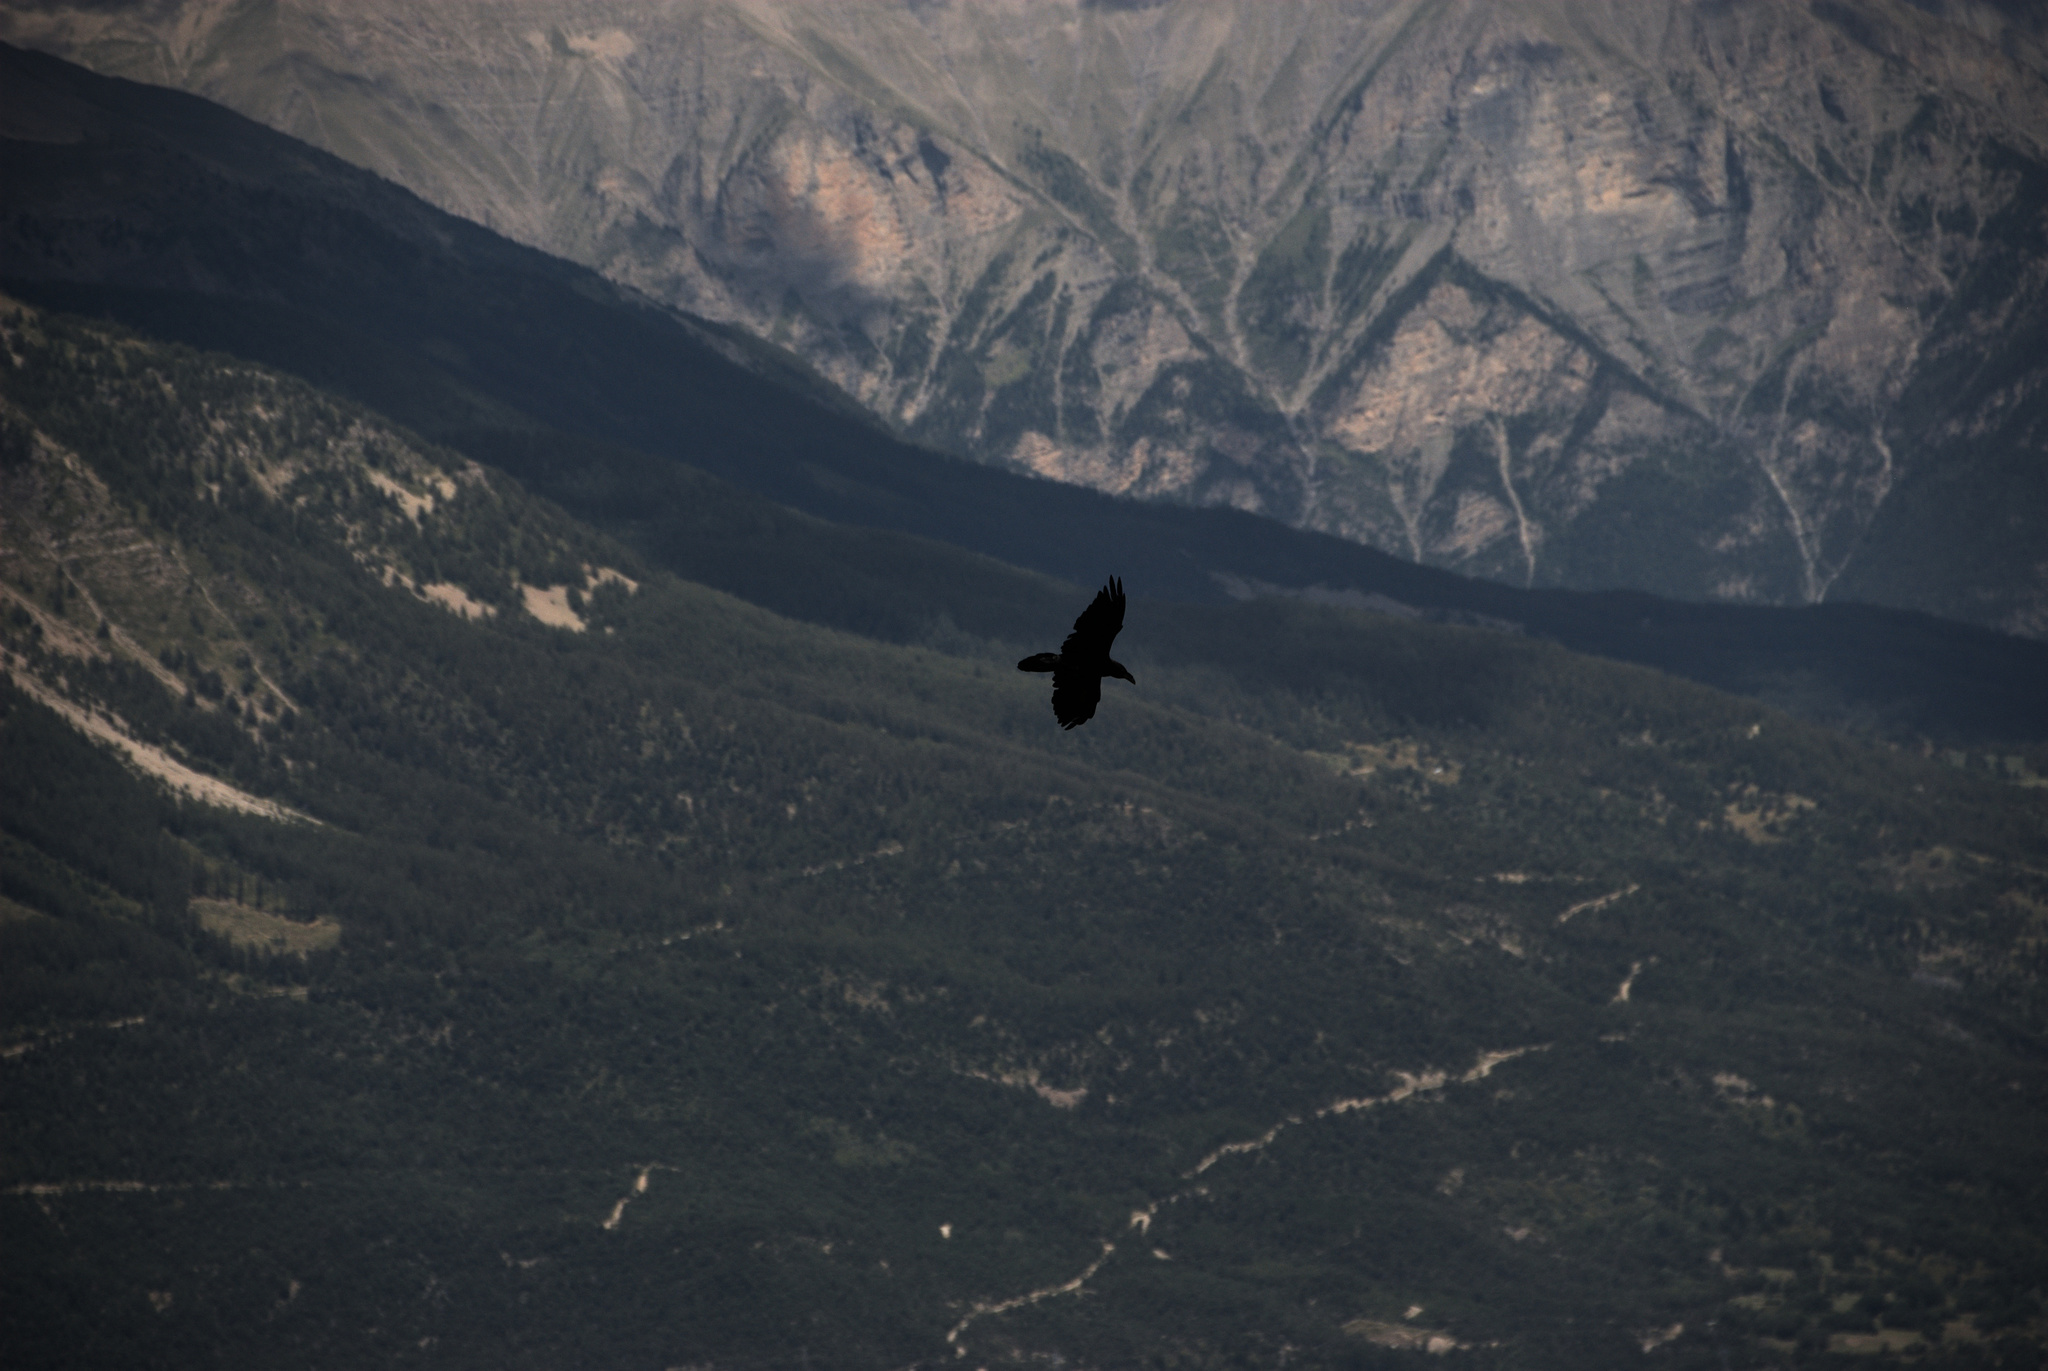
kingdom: Animalia
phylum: Chordata
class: Aves
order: Passeriformes
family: Corvidae
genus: Corvus
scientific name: Corvus corax
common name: Common raven
